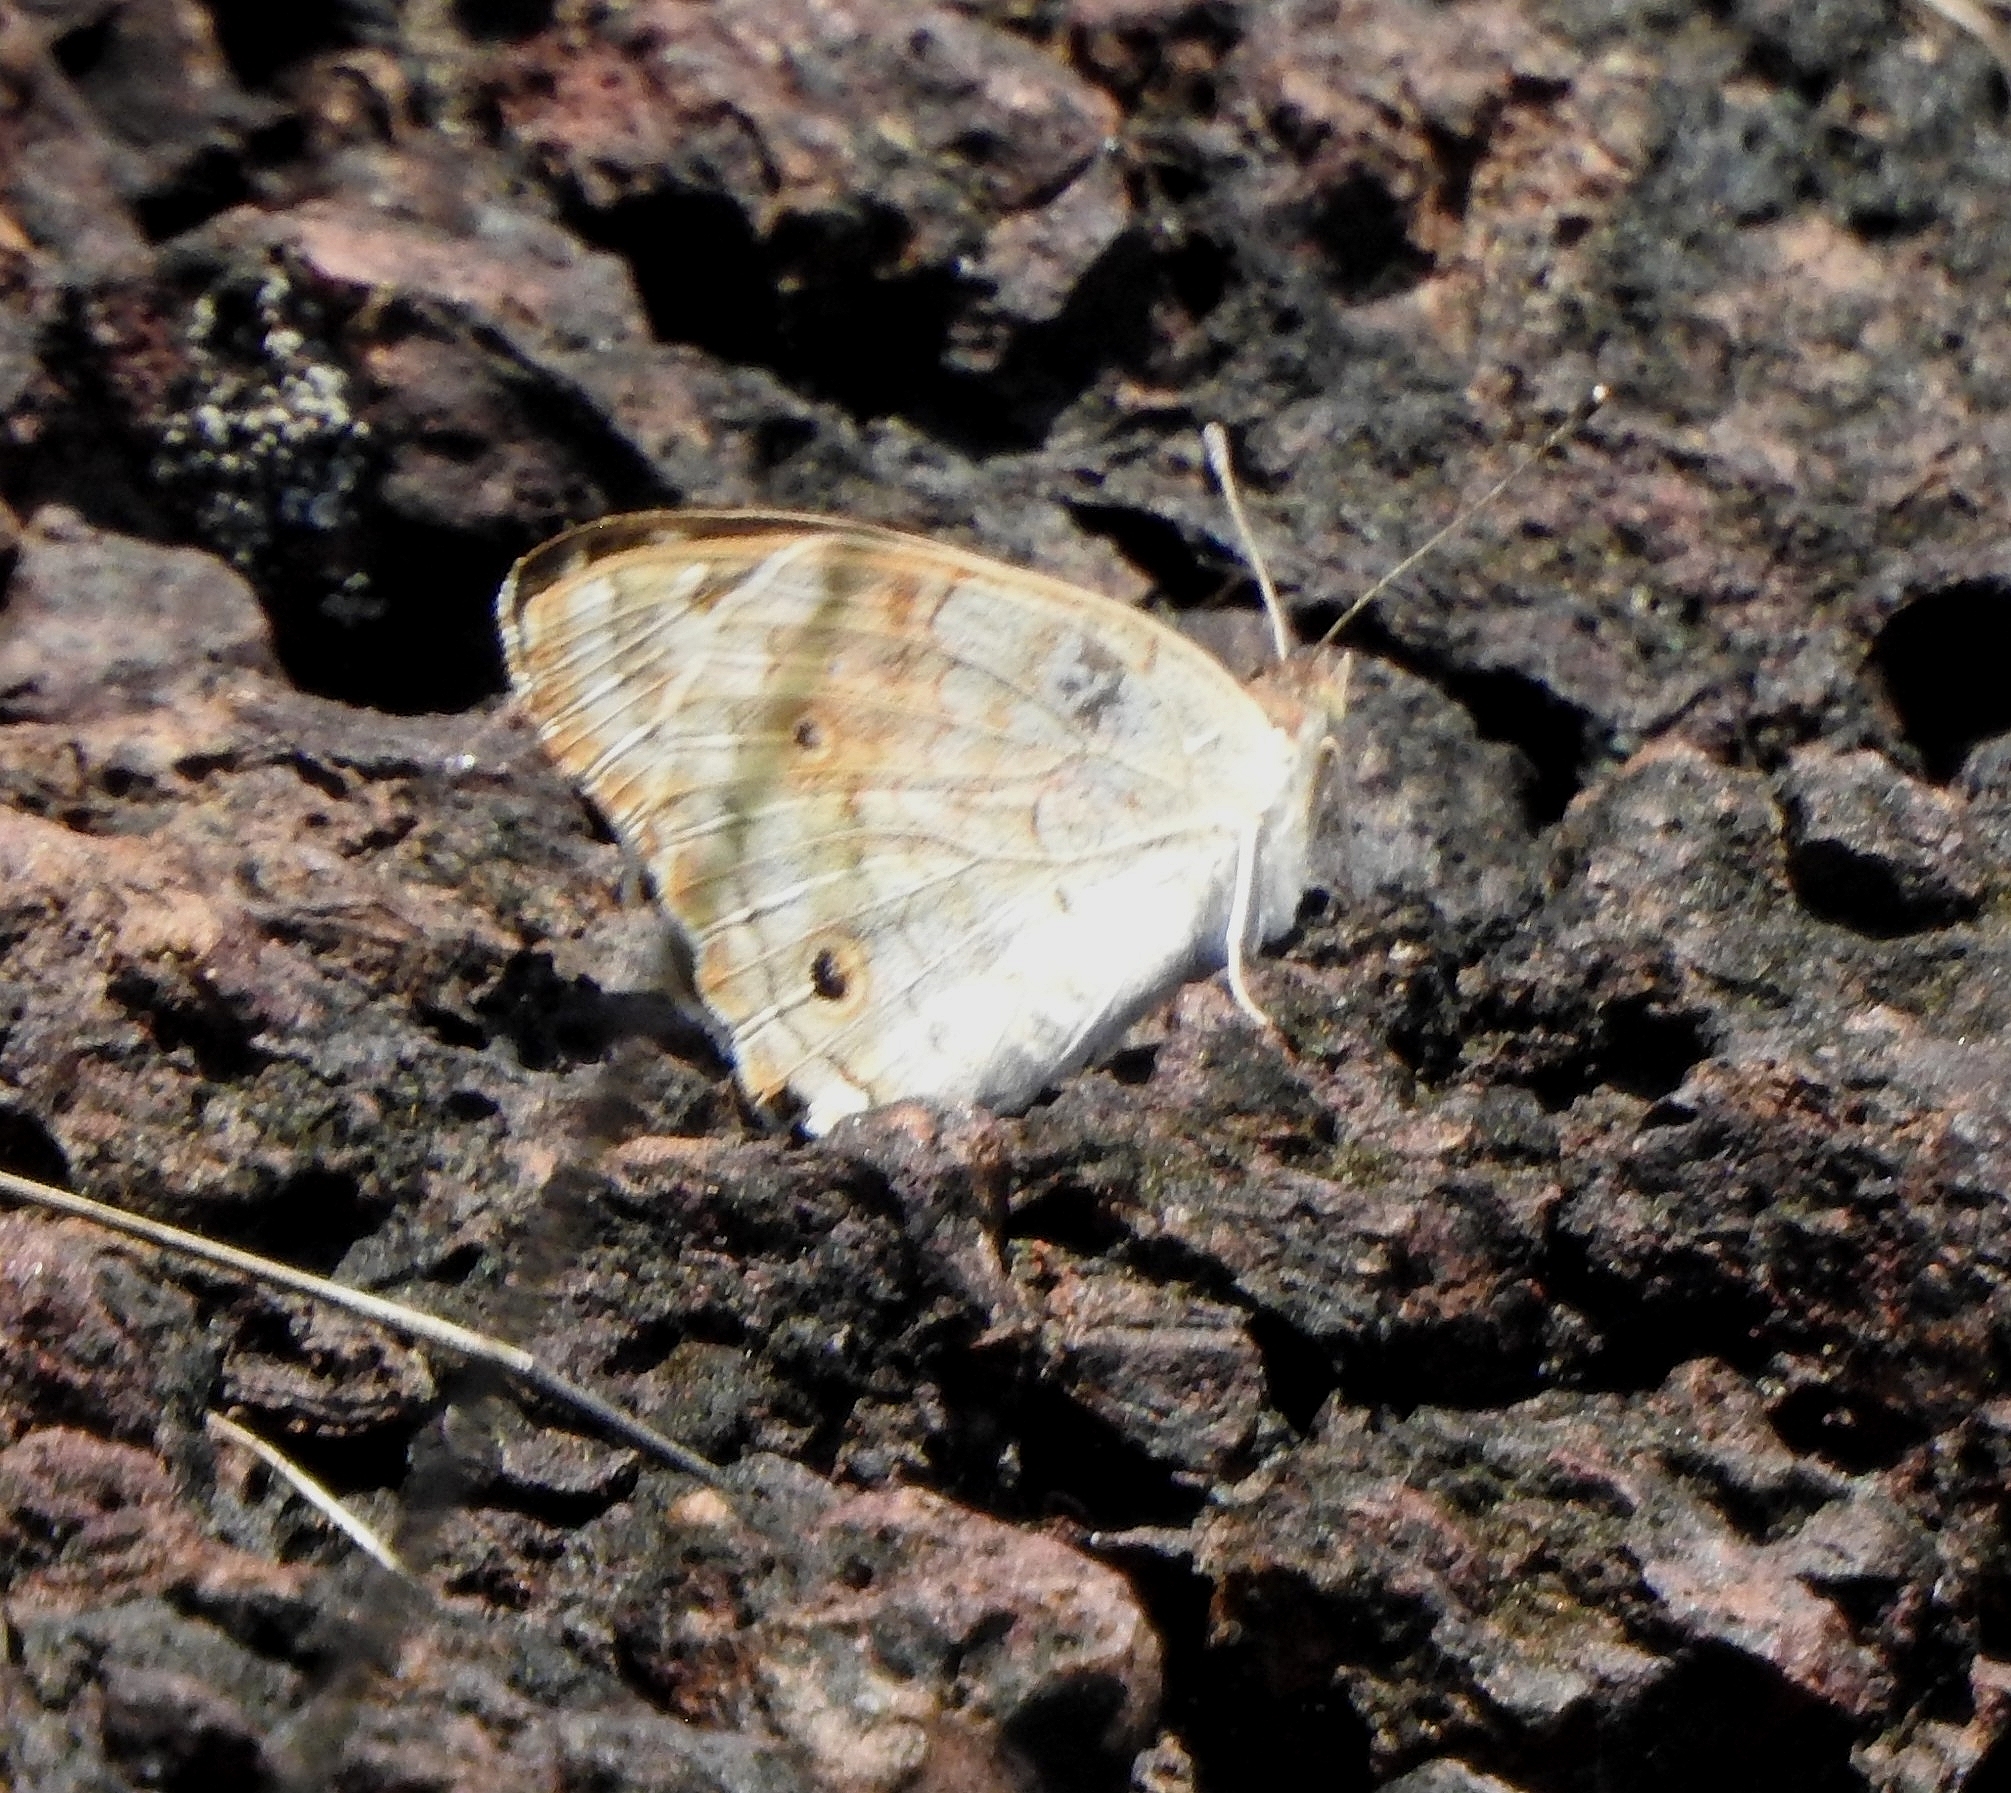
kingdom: Animalia
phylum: Arthropoda
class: Insecta
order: Lepidoptera
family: Nymphalidae
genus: Junonia
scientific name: Junonia orithya
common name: Blue pansy
